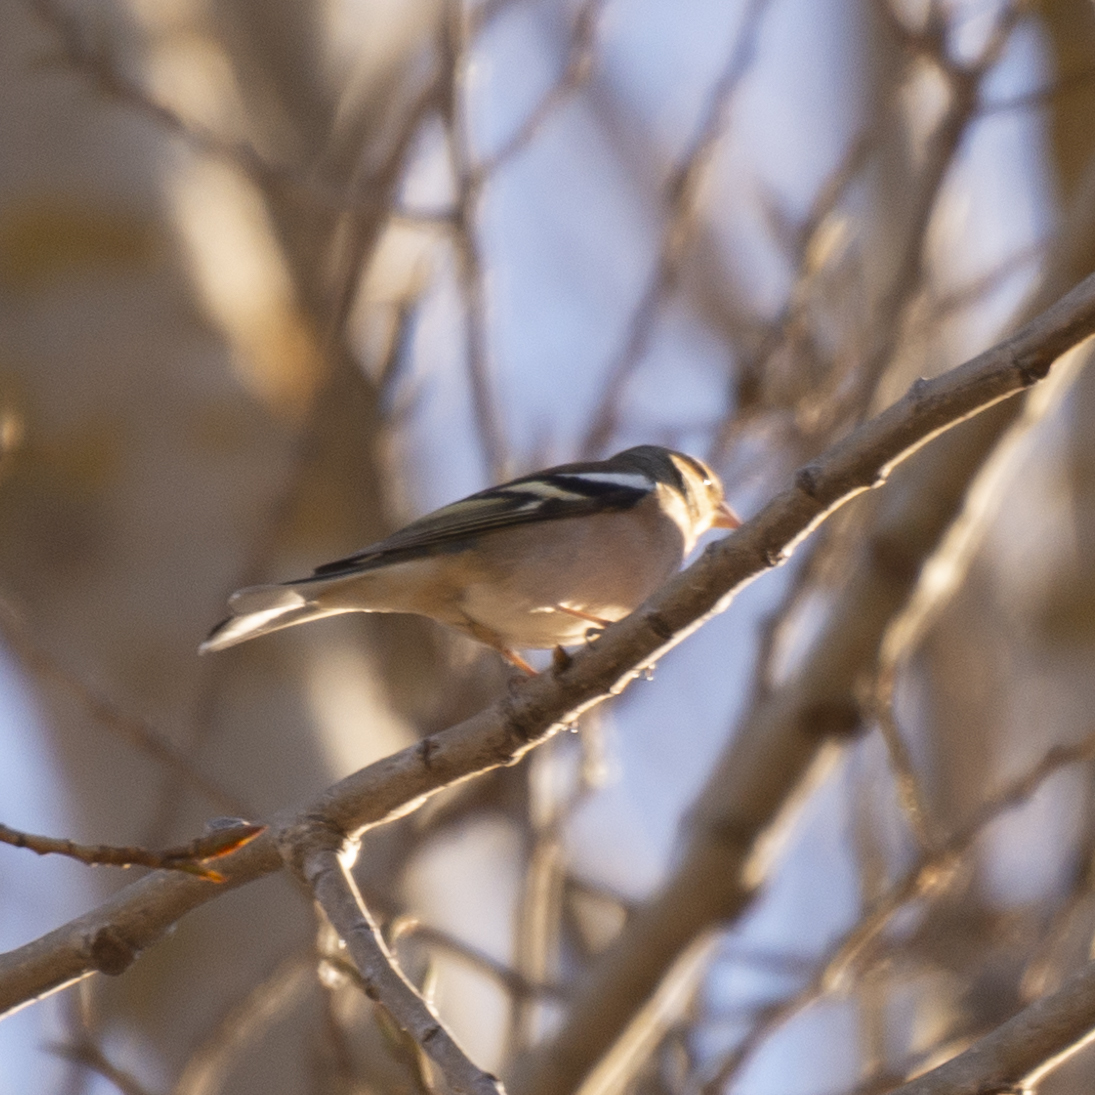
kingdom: Animalia
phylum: Chordata
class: Aves
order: Passeriformes
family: Fringillidae
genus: Fringilla
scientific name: Fringilla coelebs
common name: Common chaffinch
